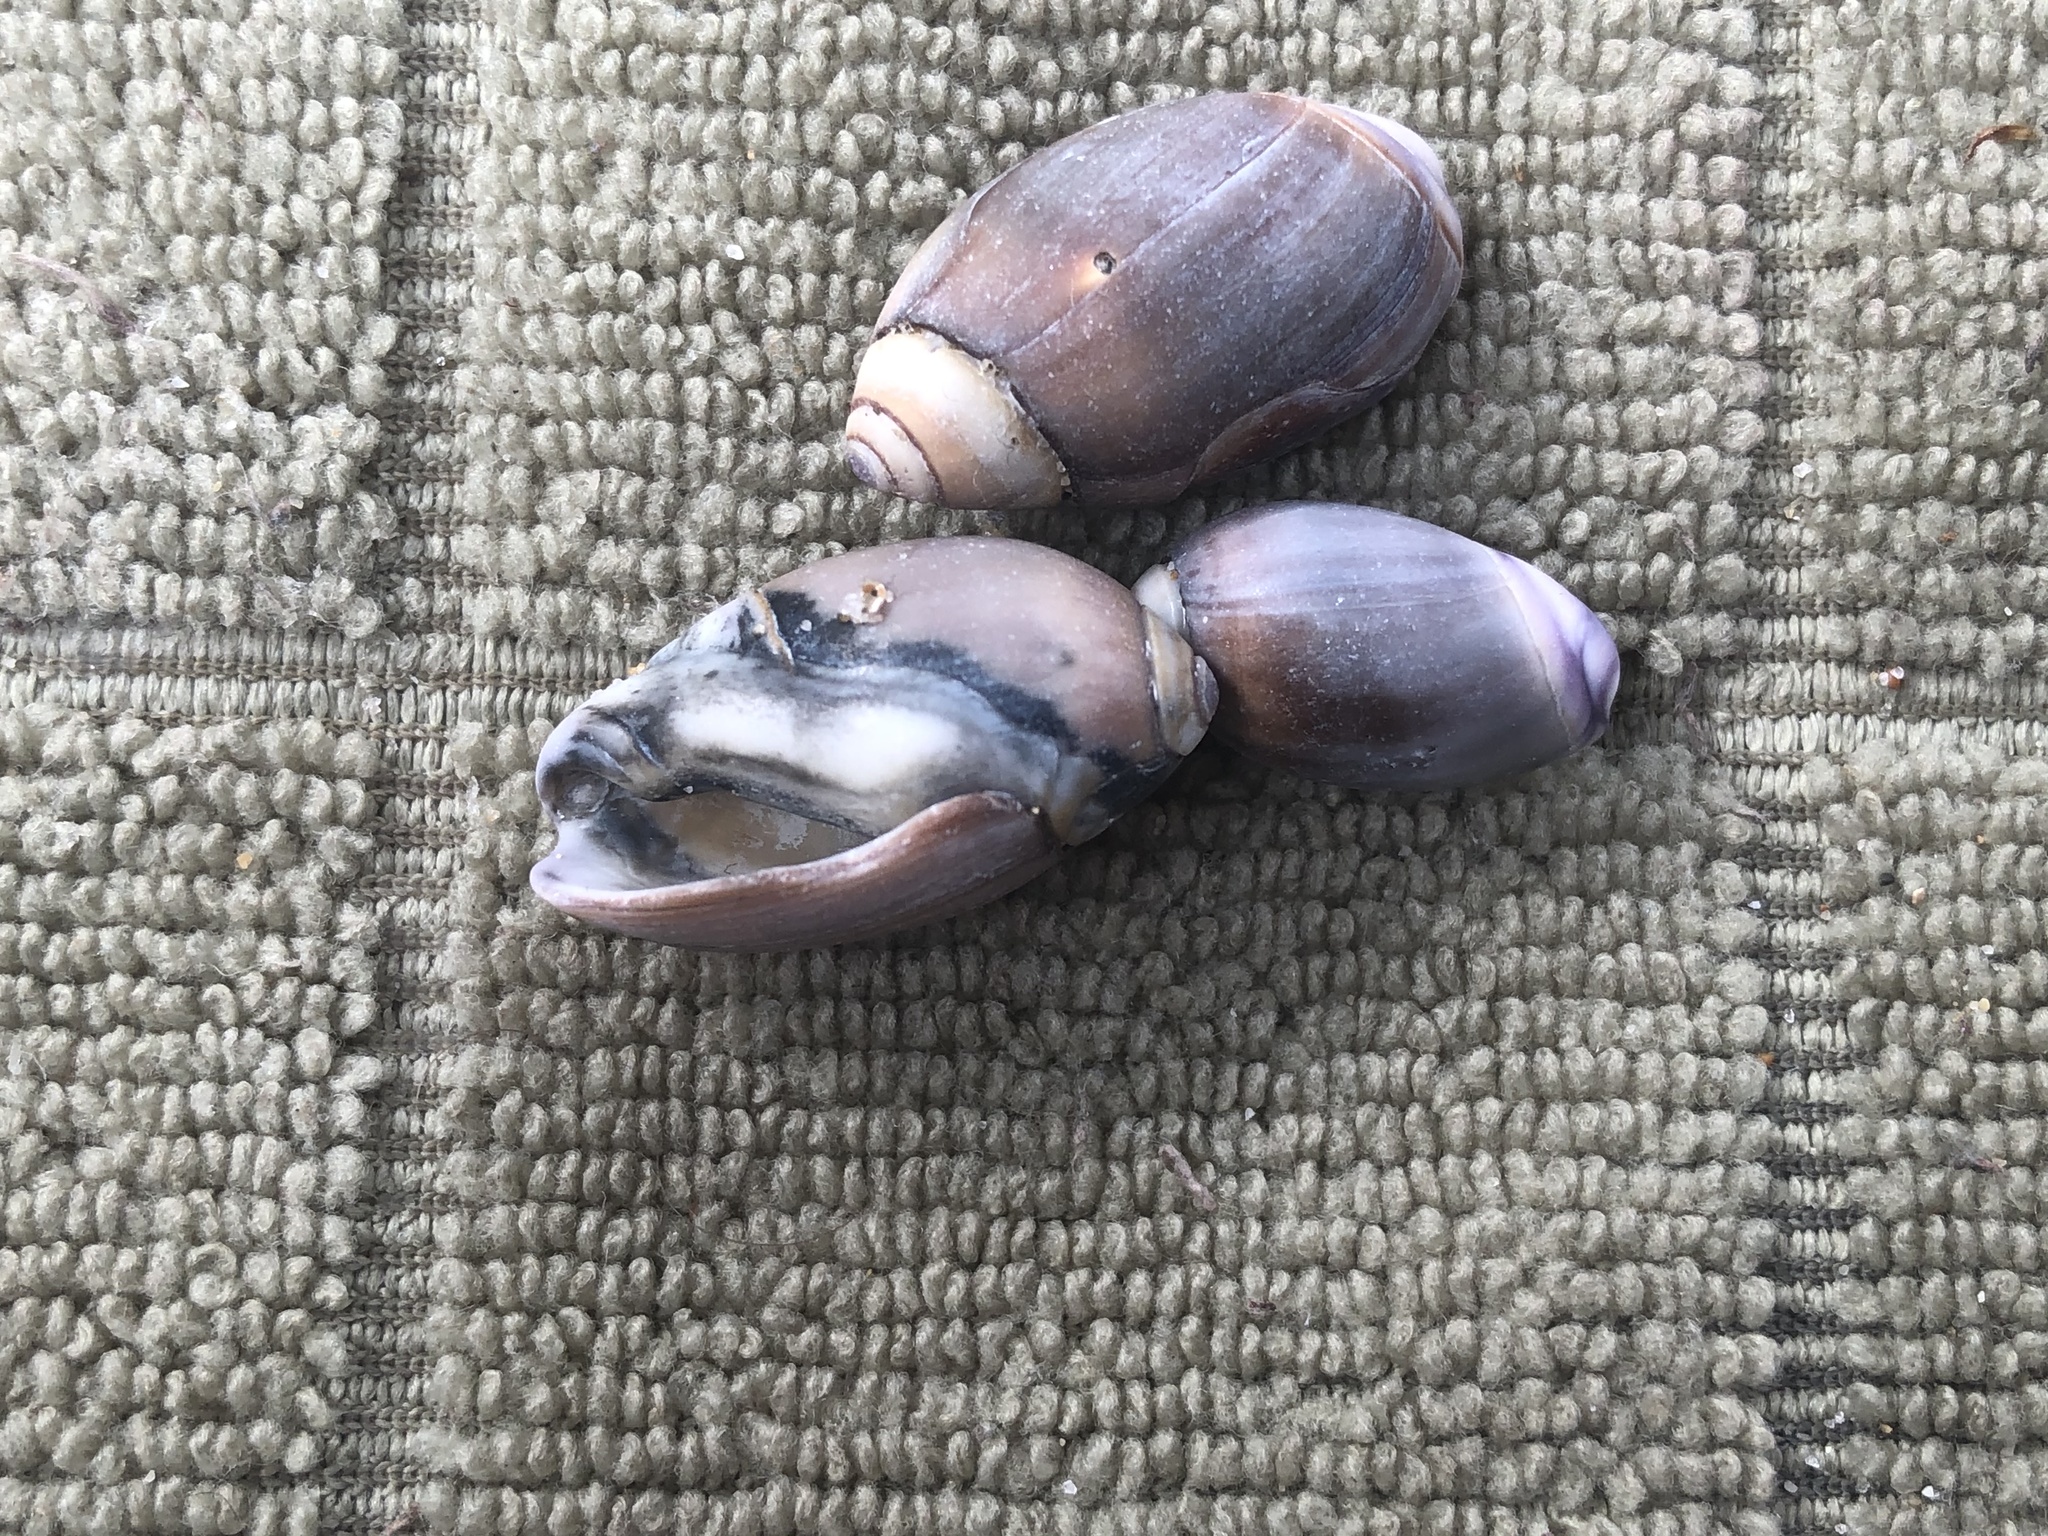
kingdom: Animalia
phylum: Mollusca
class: Gastropoda
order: Neogastropoda
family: Olividae
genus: Callianax
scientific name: Callianax biplicata
